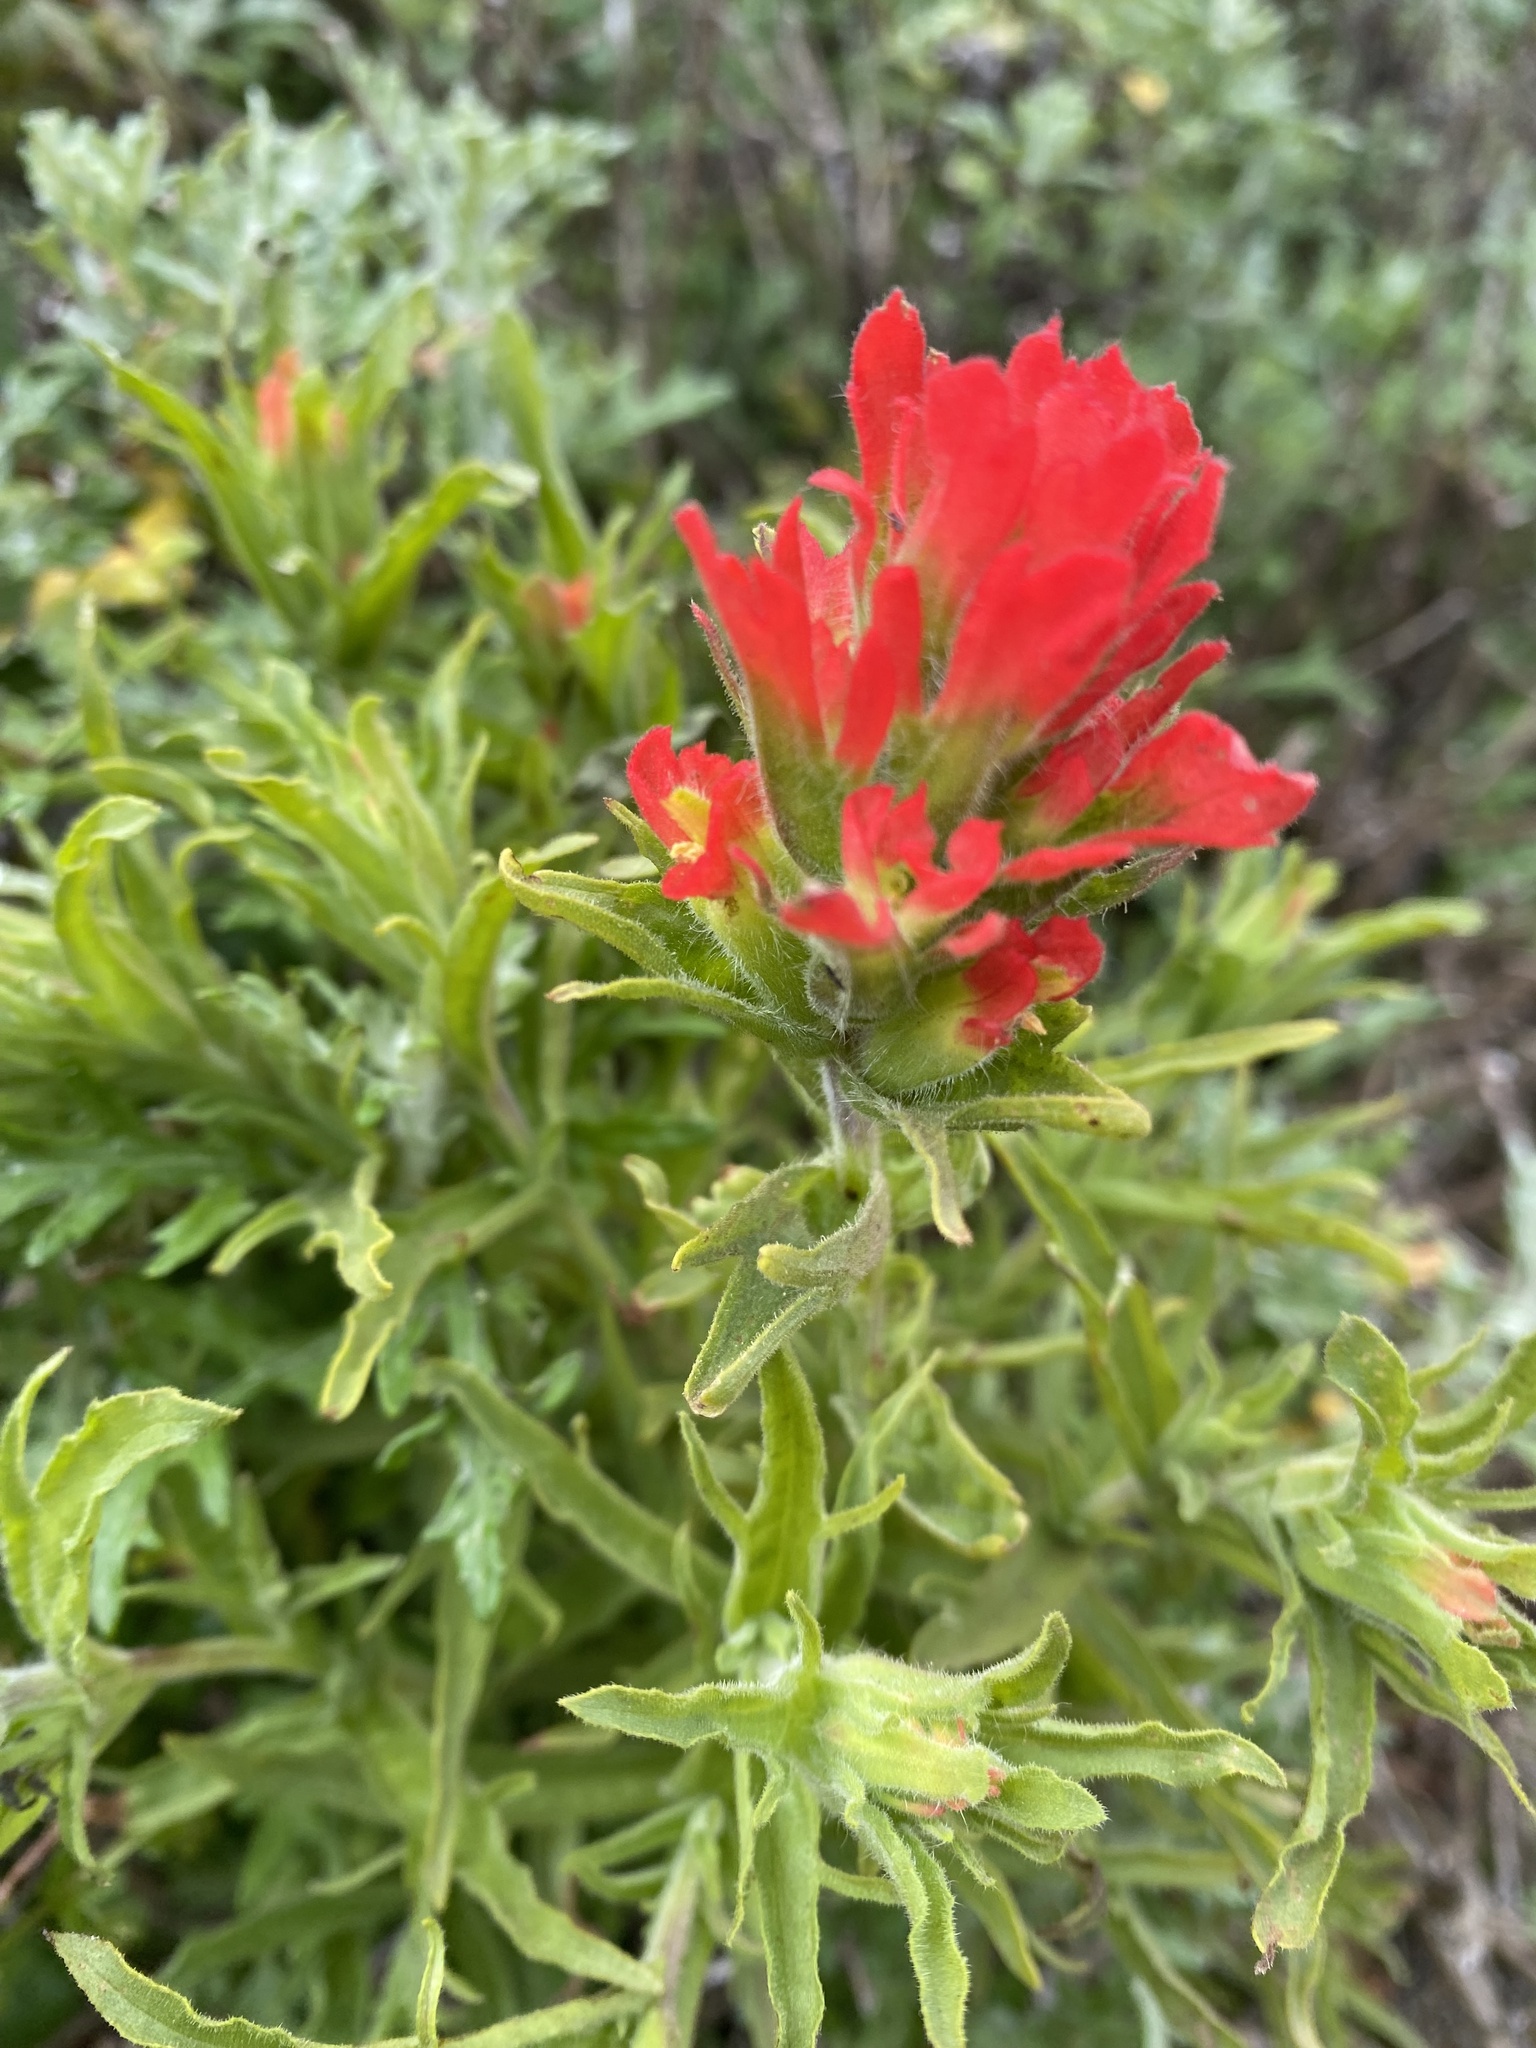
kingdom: Plantae
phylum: Tracheophyta
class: Magnoliopsida
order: Lamiales
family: Orobanchaceae
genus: Castilleja
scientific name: Castilleja affinis
